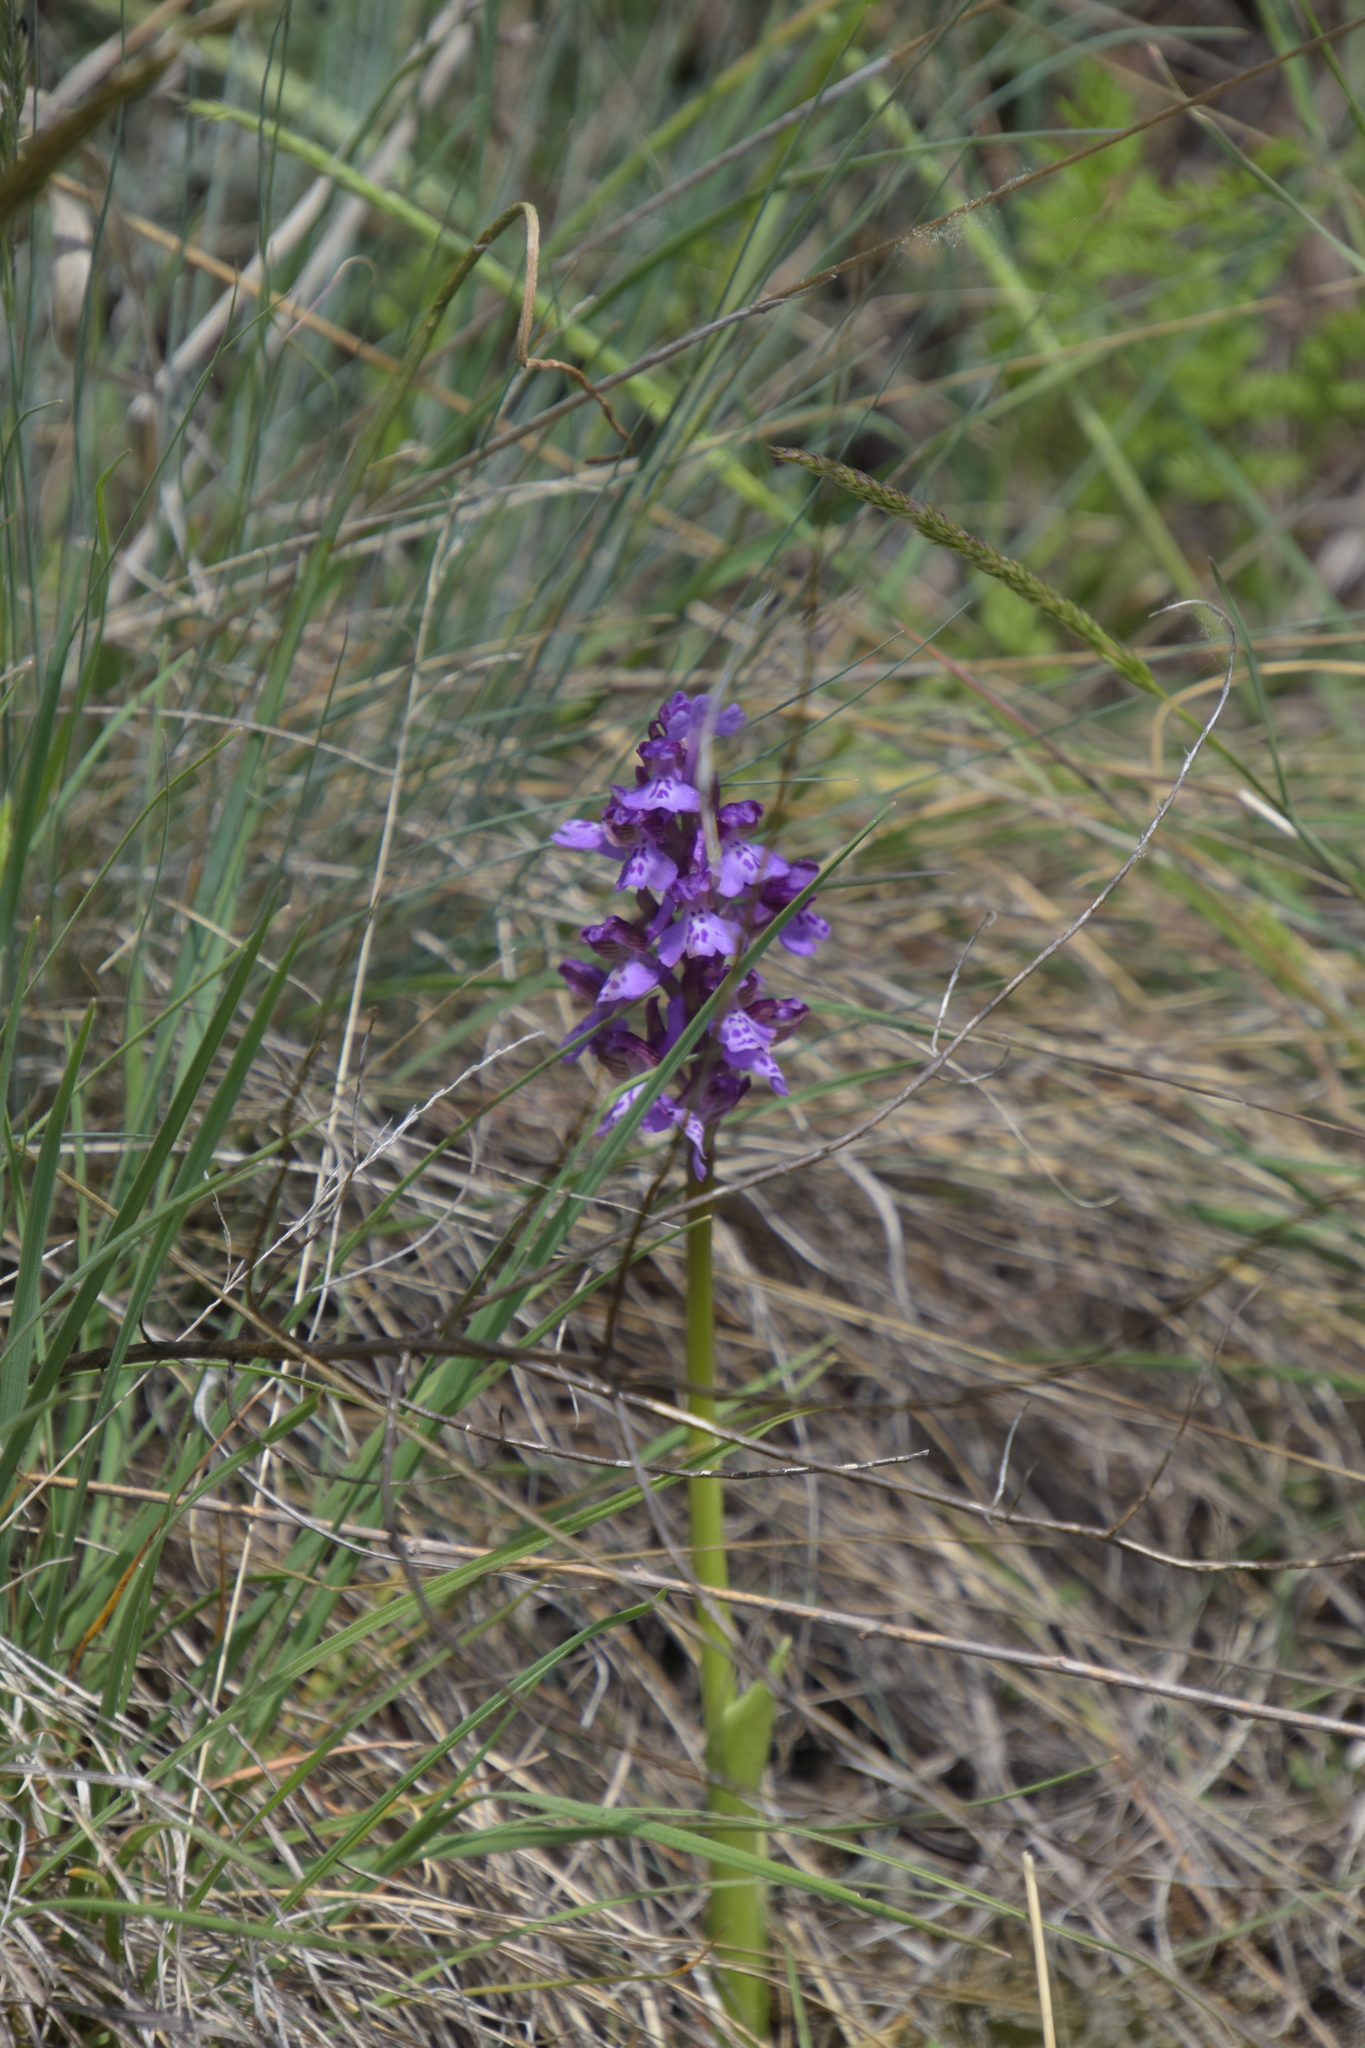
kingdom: Plantae
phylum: Tracheophyta
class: Liliopsida
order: Asparagales
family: Orchidaceae
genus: Anacamptis
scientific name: Anacamptis morio
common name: Green-winged orchid
